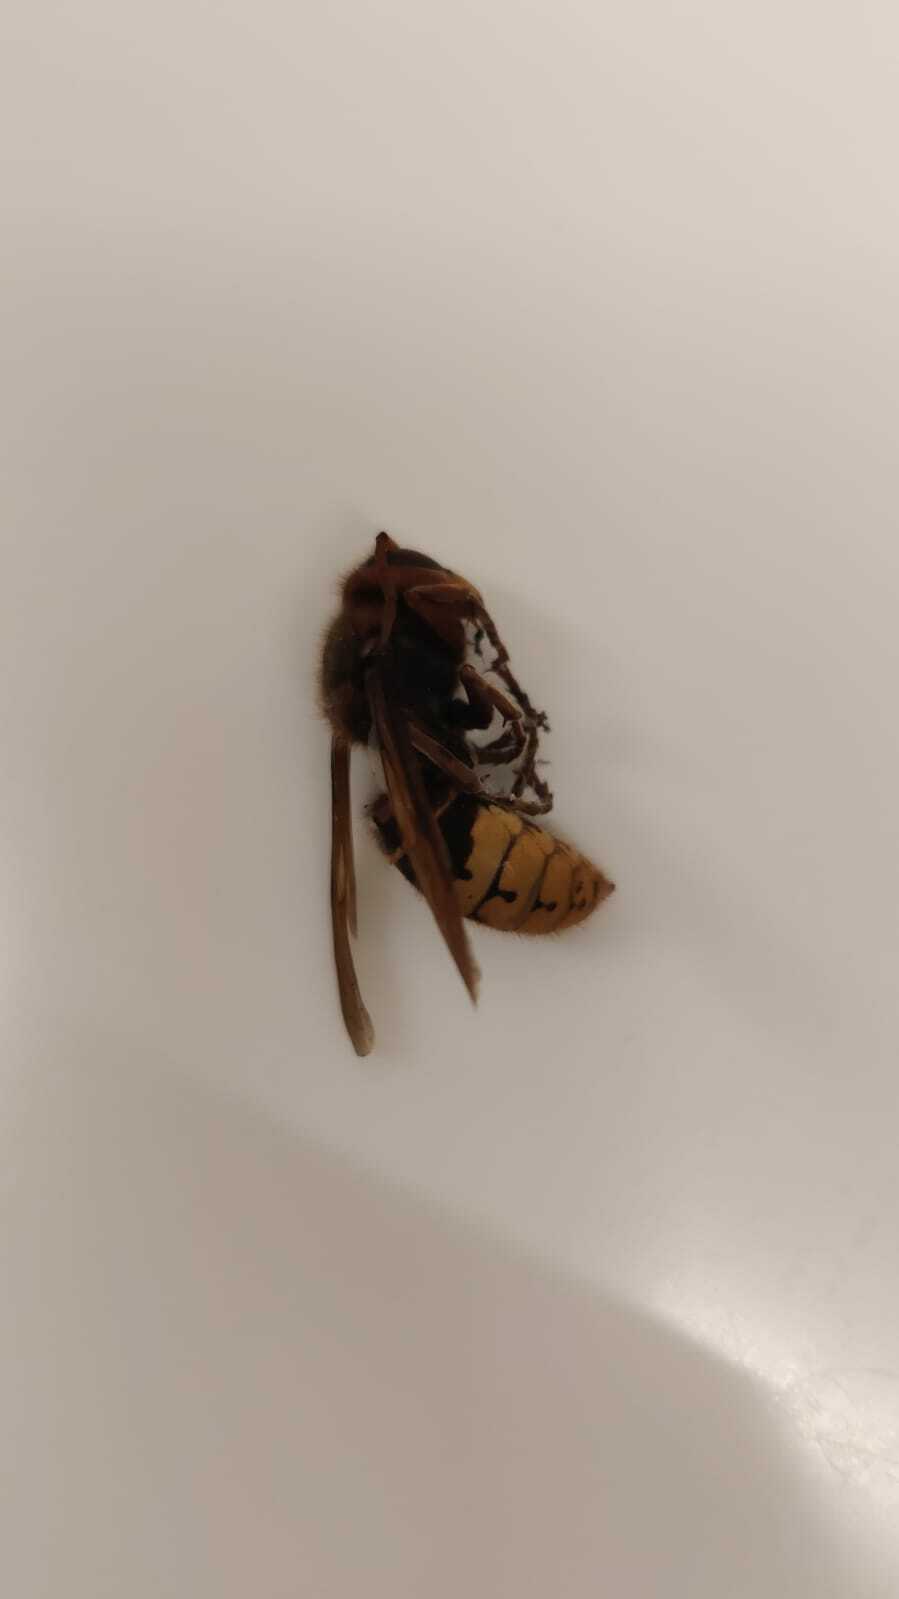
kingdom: Animalia
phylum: Arthropoda
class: Insecta
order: Hymenoptera
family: Vespidae
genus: Vespa
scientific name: Vespa crabro
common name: Hornet
